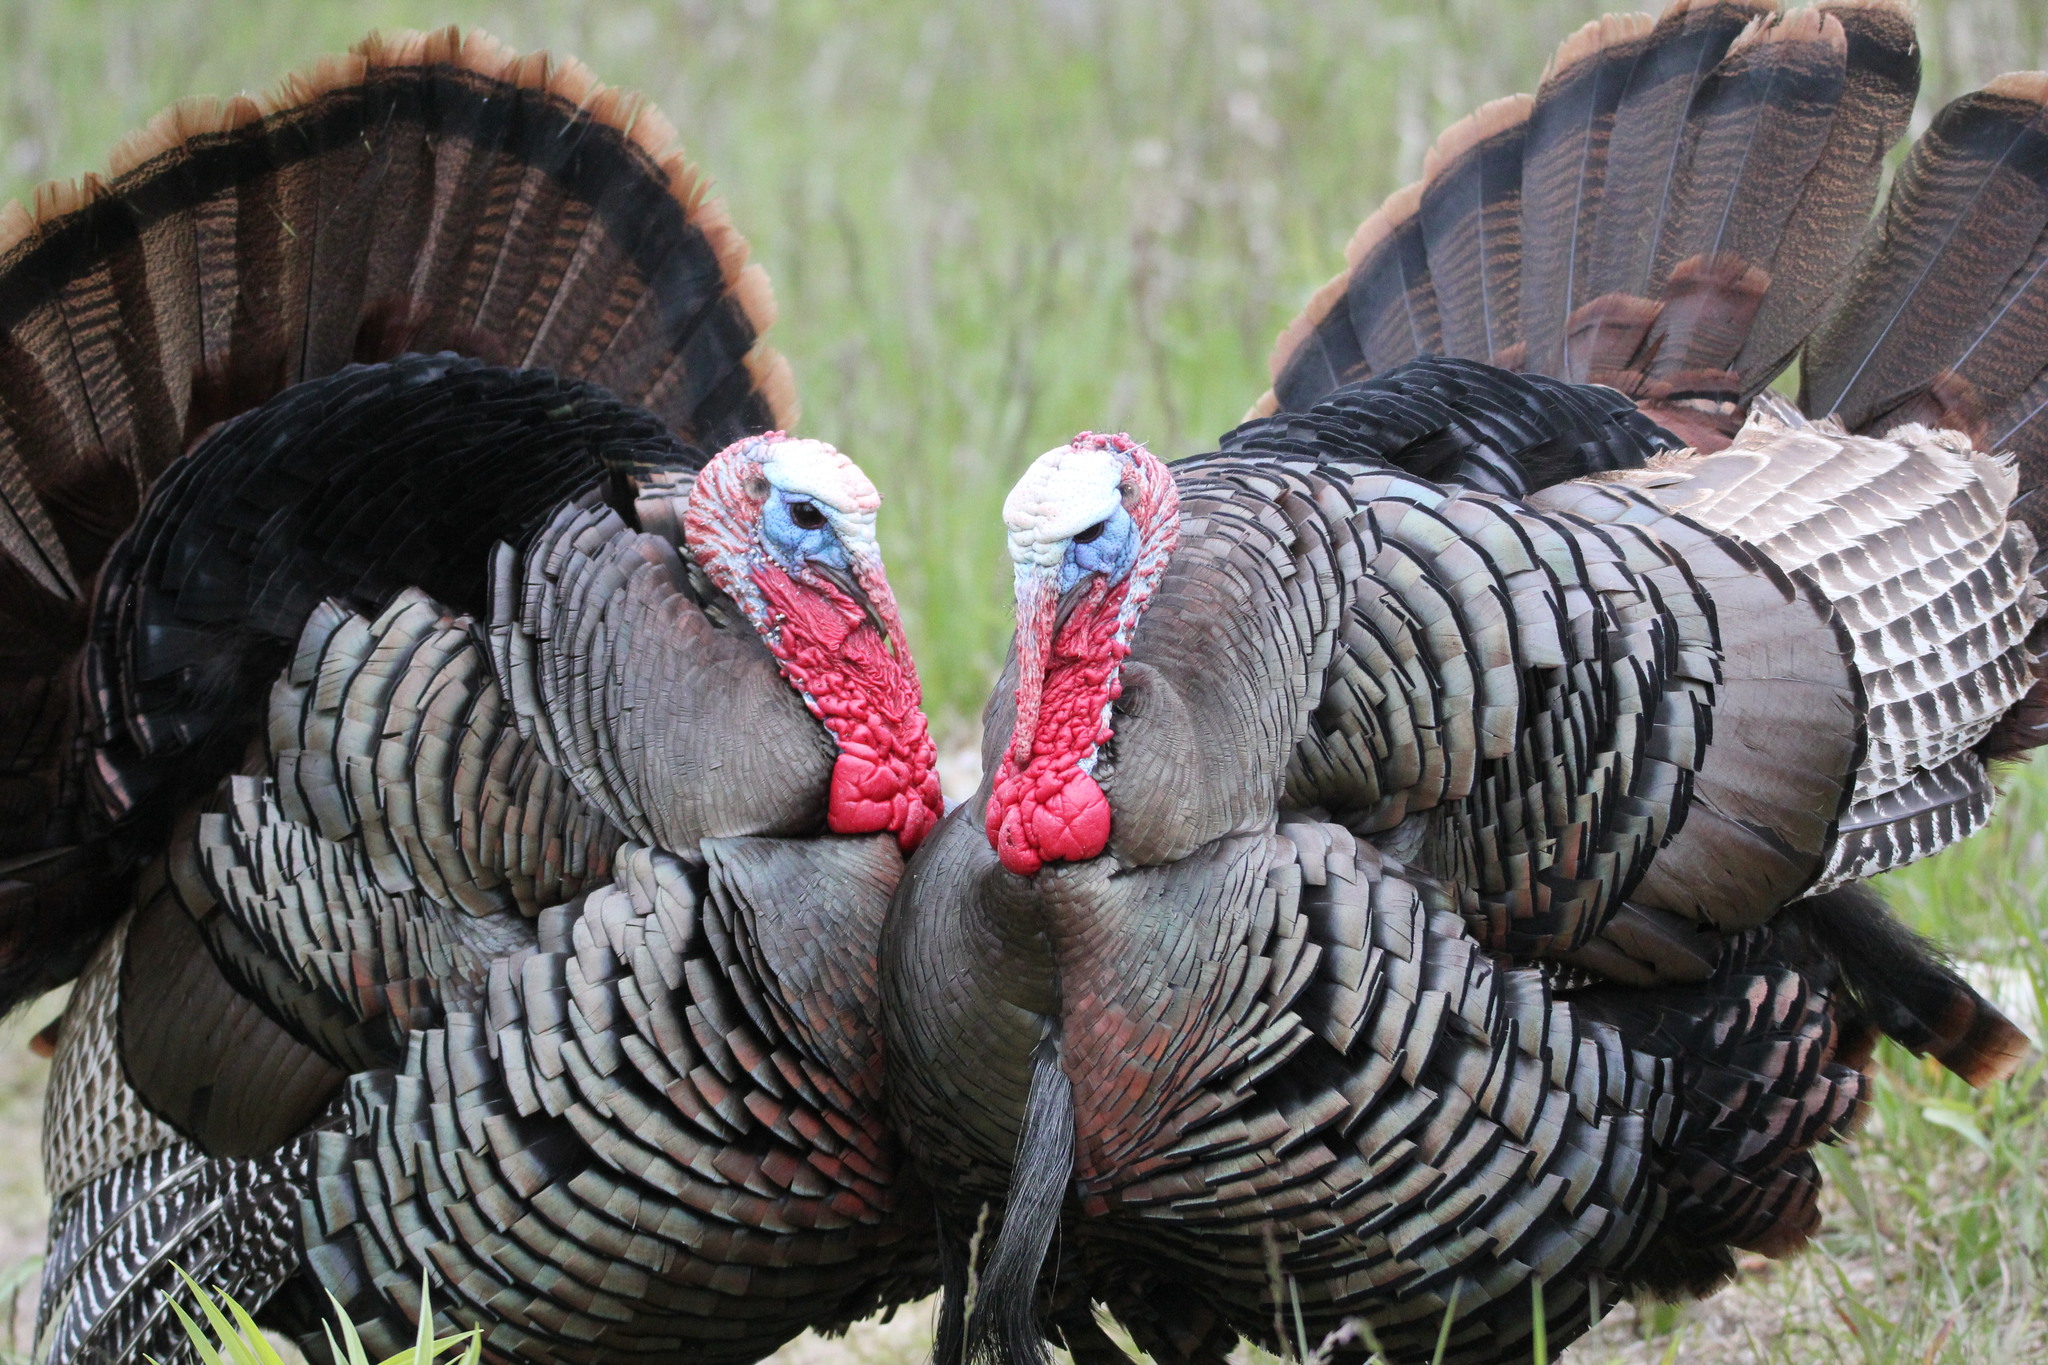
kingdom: Animalia
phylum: Chordata
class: Aves
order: Galliformes
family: Phasianidae
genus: Meleagris
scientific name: Meleagris gallopavo
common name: Wild turkey
